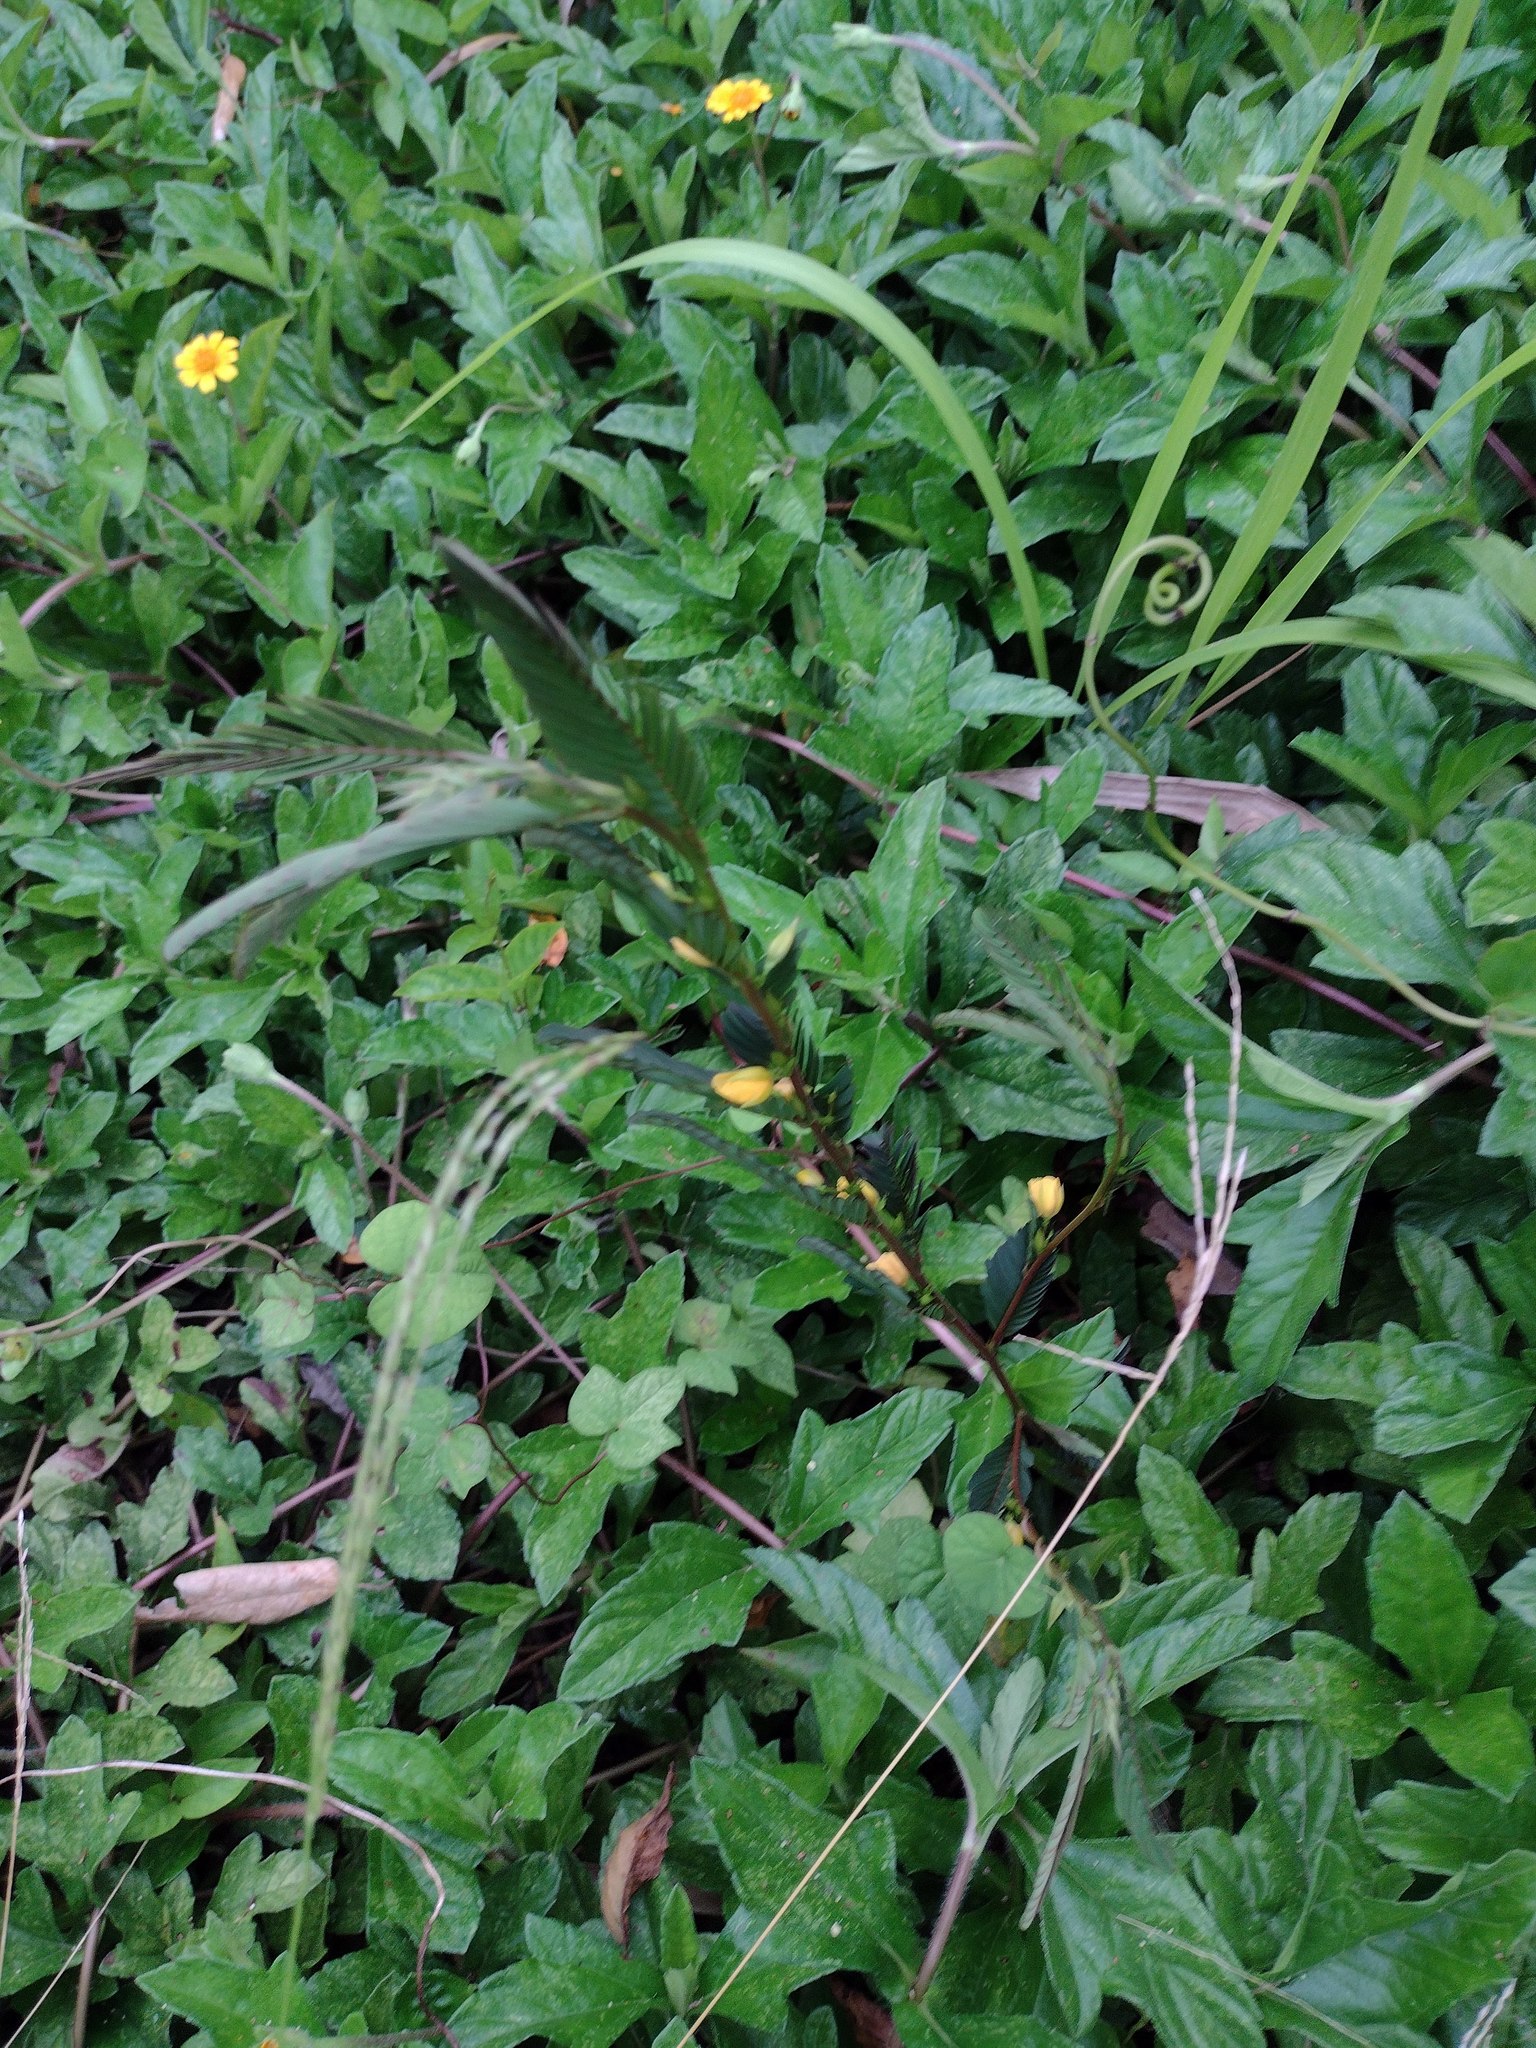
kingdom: Plantae
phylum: Tracheophyta
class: Magnoliopsida
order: Fabales
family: Fabaceae
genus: Chamaecrista
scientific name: Chamaecrista nictitans
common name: Sensitive cassia
